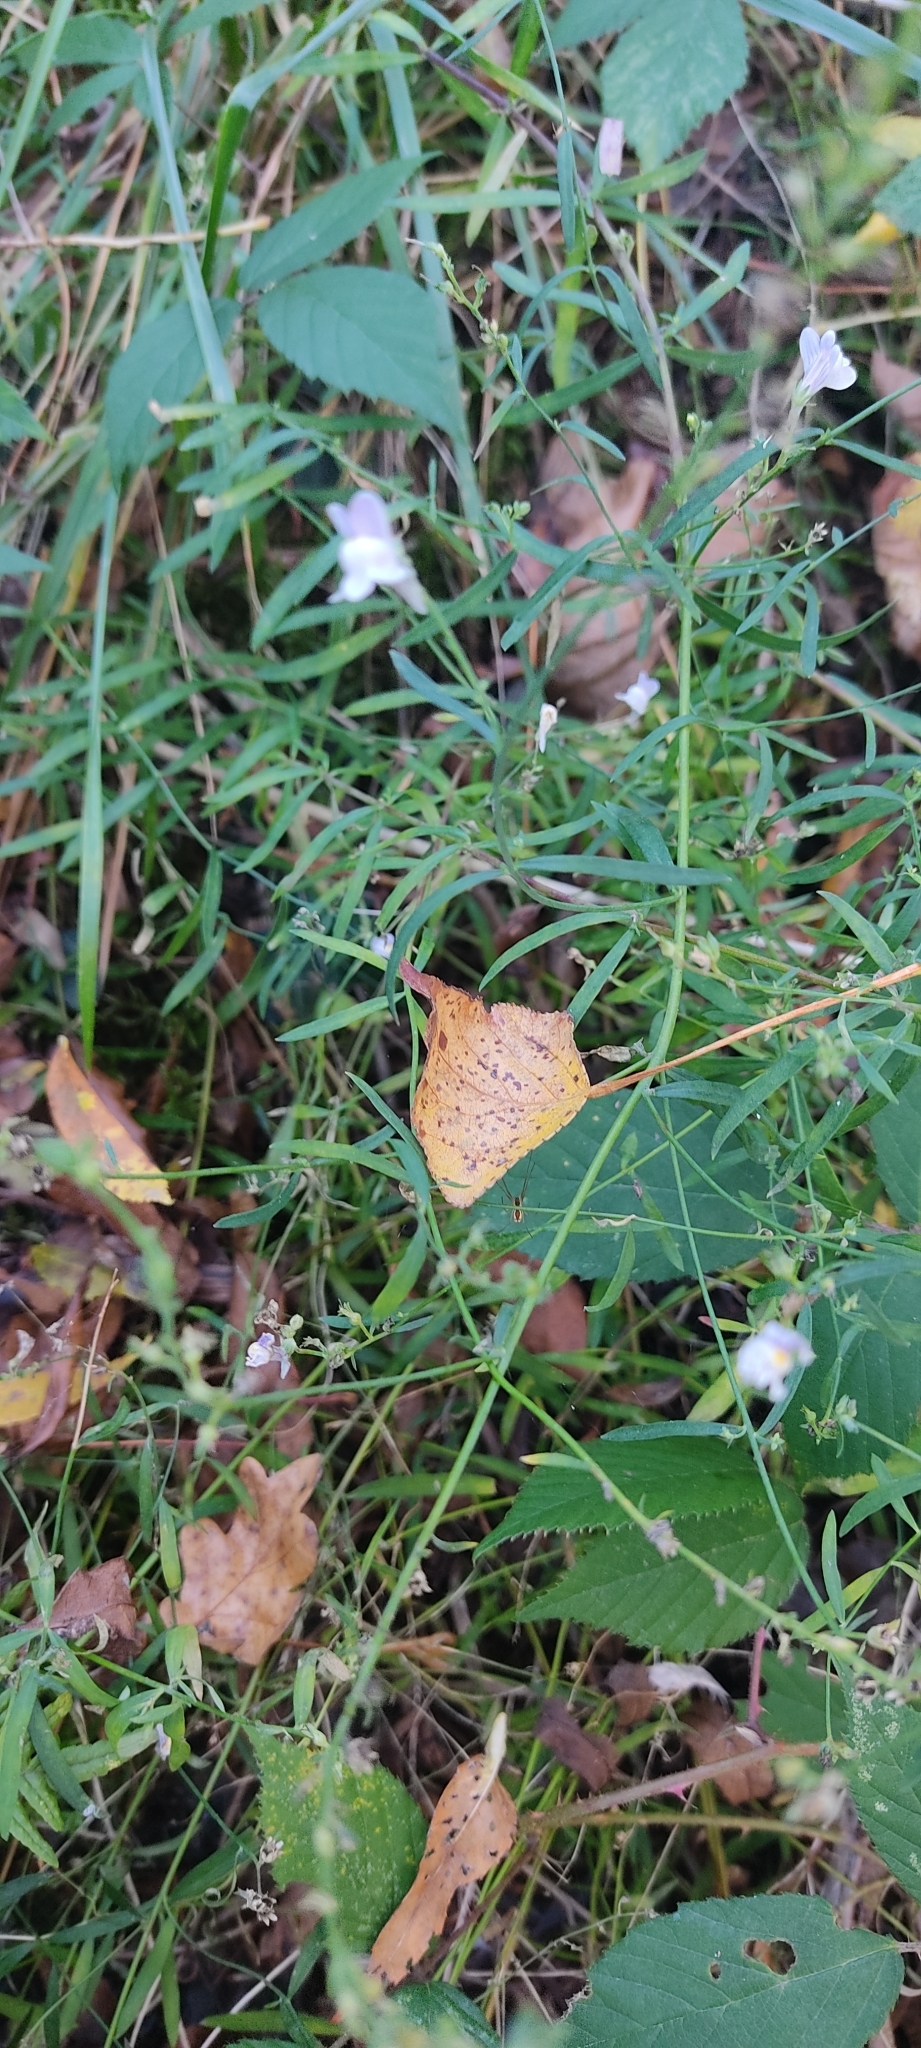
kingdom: Plantae
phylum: Tracheophyta
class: Magnoliopsida
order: Lamiales
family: Plantaginaceae
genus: Linaria
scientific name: Linaria repens
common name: Pale toadflax
